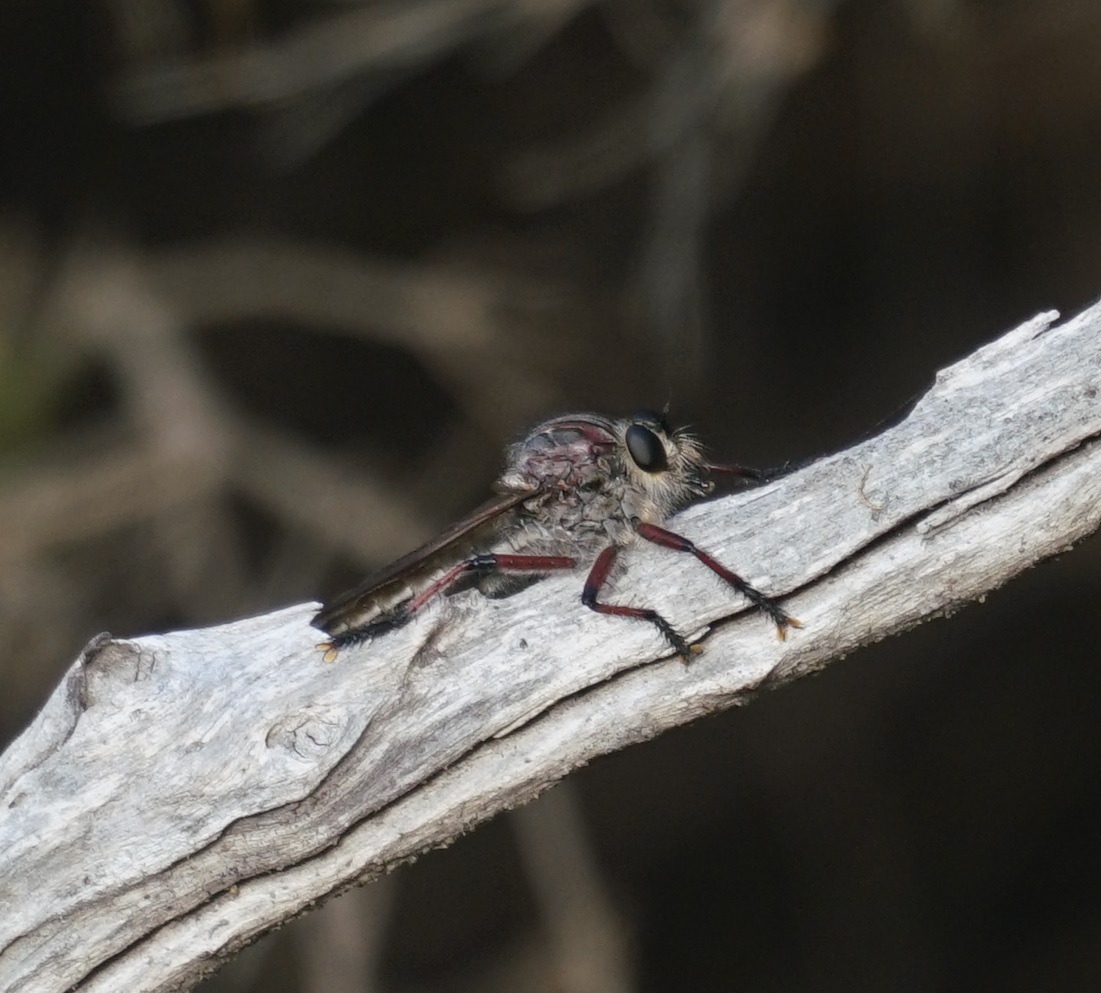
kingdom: Animalia
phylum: Arthropoda
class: Insecta
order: Diptera
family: Asilidae
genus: Neoaratus
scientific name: Neoaratus hercules
